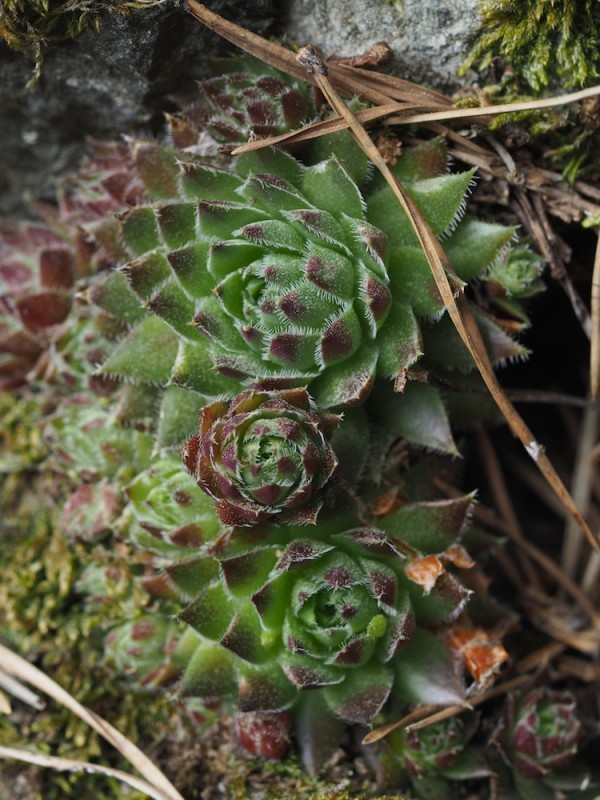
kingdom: Plantae
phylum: Tracheophyta
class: Magnoliopsida
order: Saxifragales
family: Crassulaceae
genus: Sempervivum
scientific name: Sempervivum globiferum
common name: Rolling hen-and-chicks
